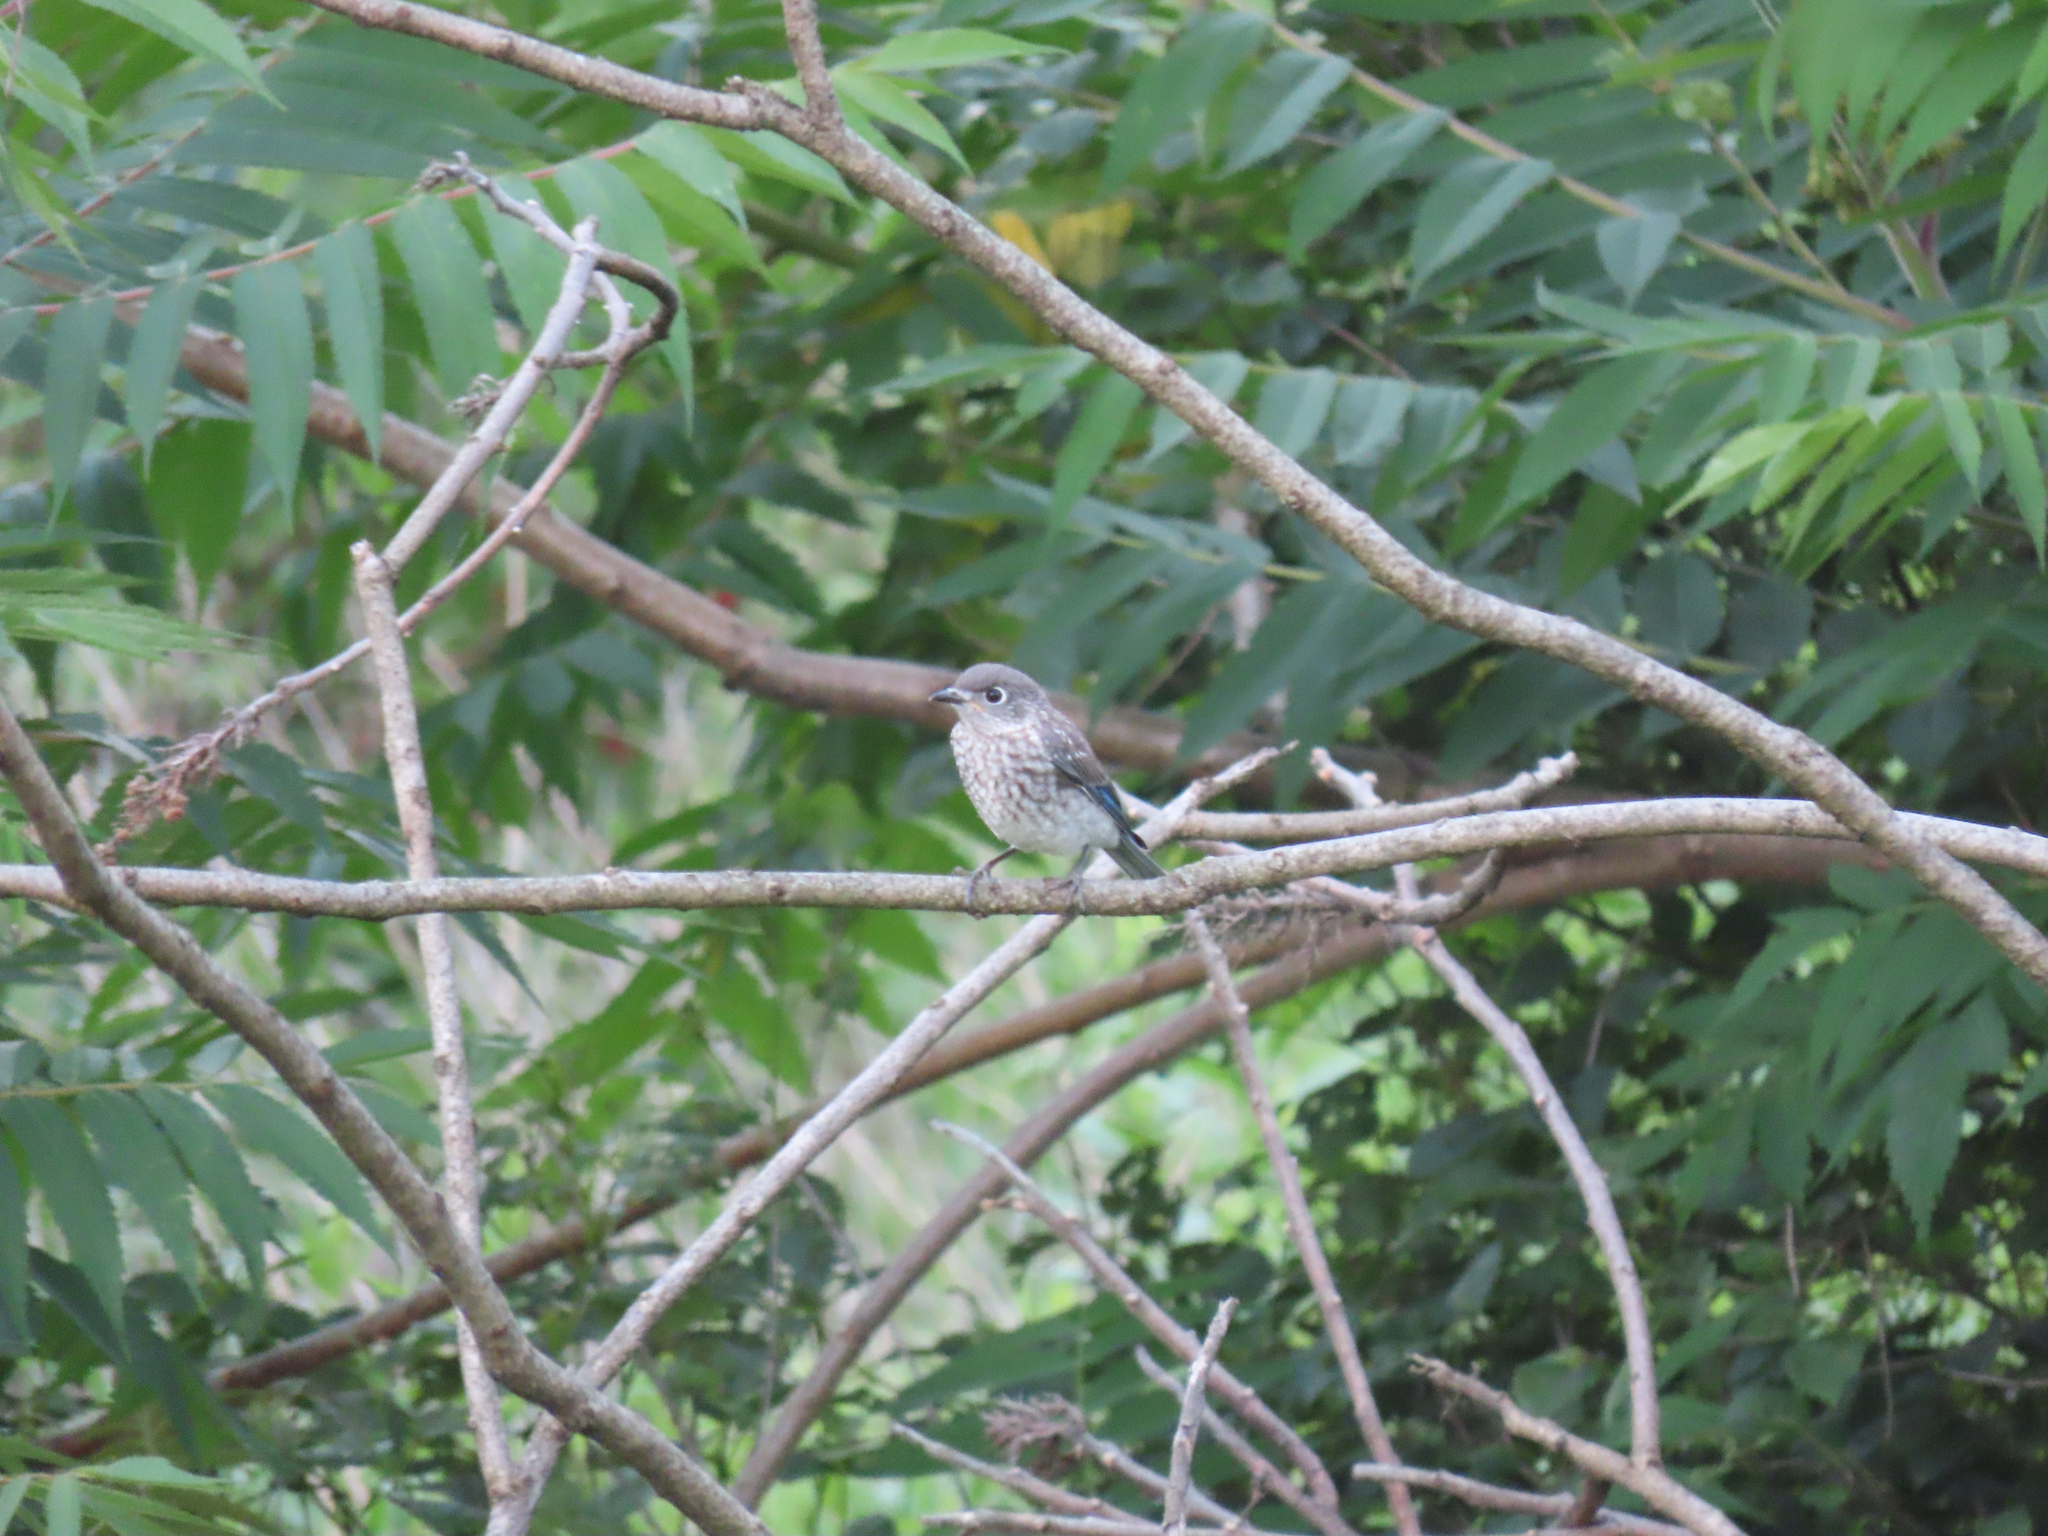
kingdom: Animalia
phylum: Chordata
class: Aves
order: Passeriformes
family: Turdidae
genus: Sialia
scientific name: Sialia sialis
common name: Eastern bluebird
